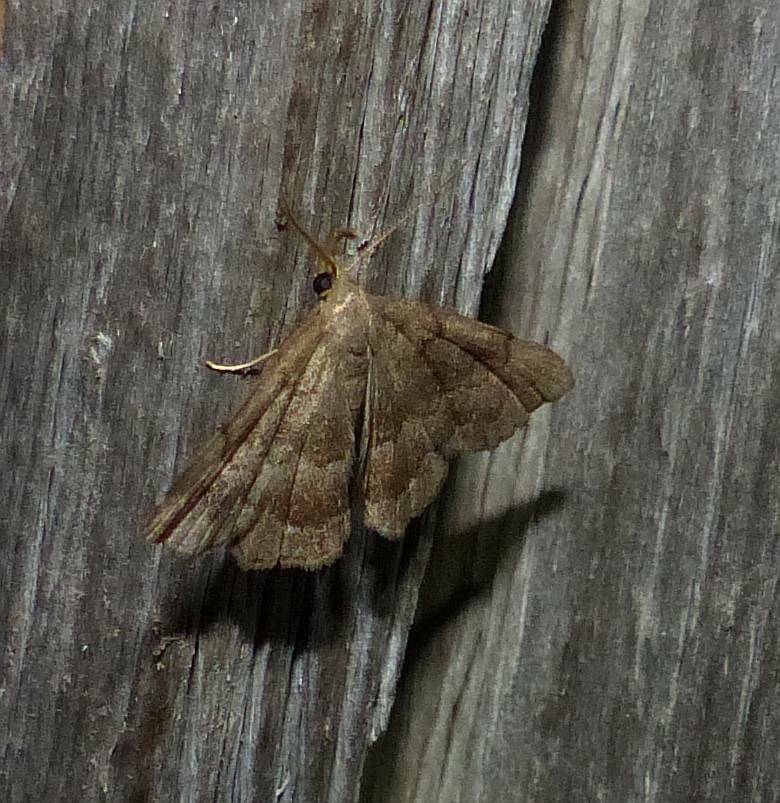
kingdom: Animalia
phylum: Arthropoda
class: Insecta
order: Lepidoptera
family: Erebidae
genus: Phalaenostola
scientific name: Phalaenostola larentioides
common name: Black-banded owlet
